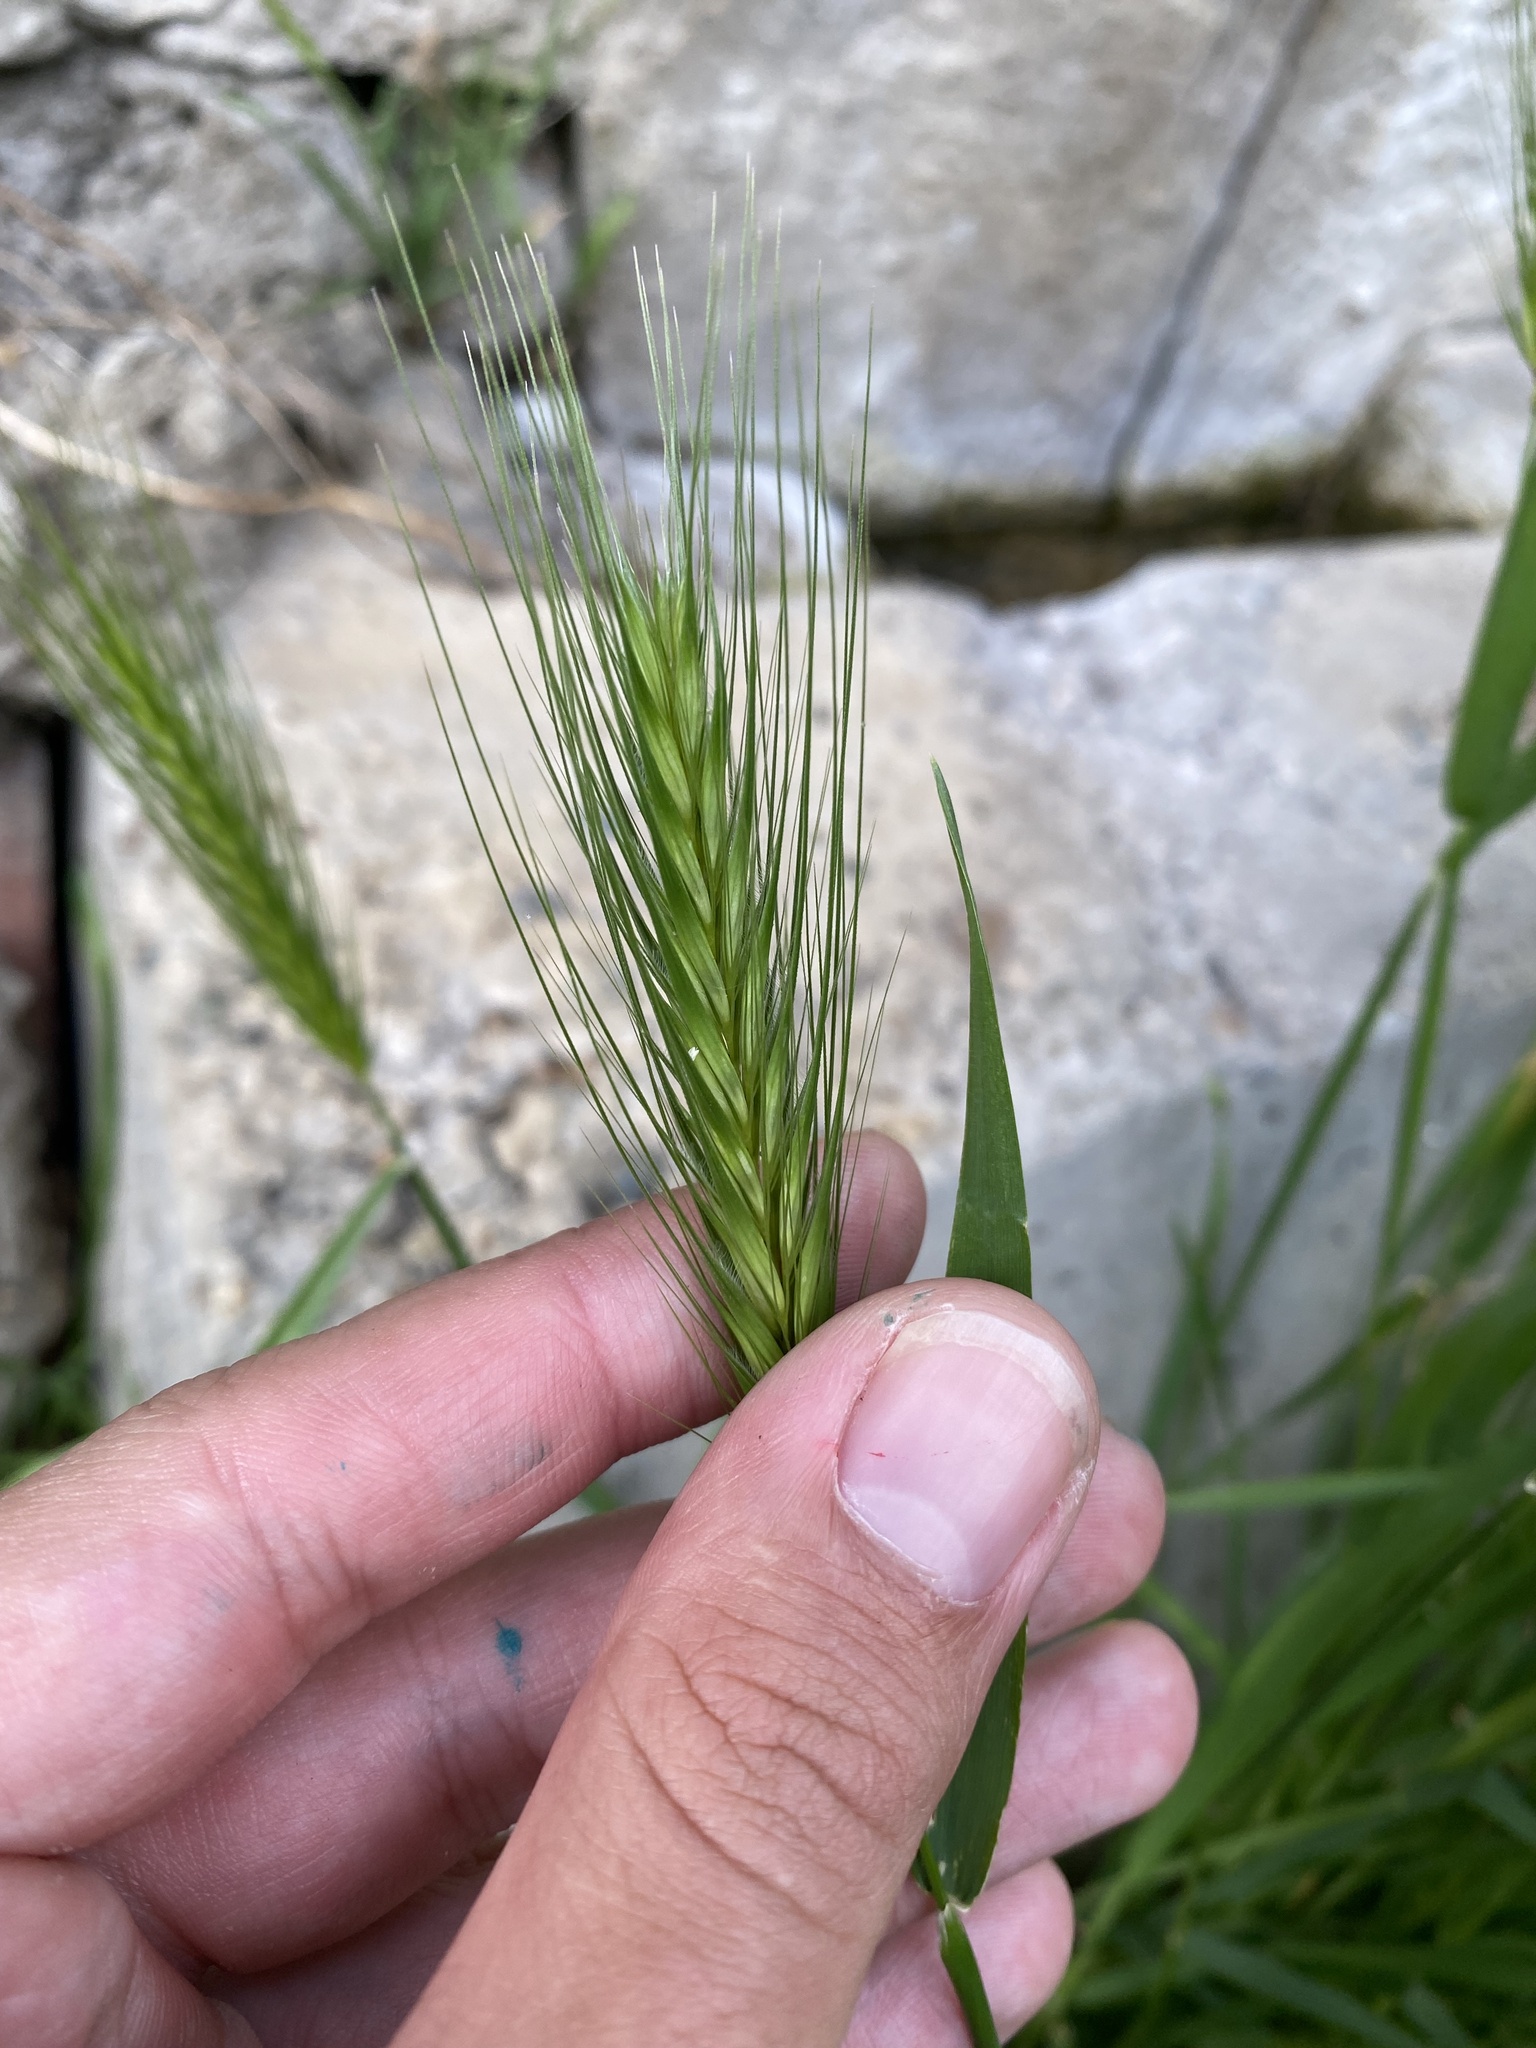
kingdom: Plantae
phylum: Tracheophyta
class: Liliopsida
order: Poales
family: Poaceae
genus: Hordeum
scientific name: Hordeum murinum
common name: Wall barley
